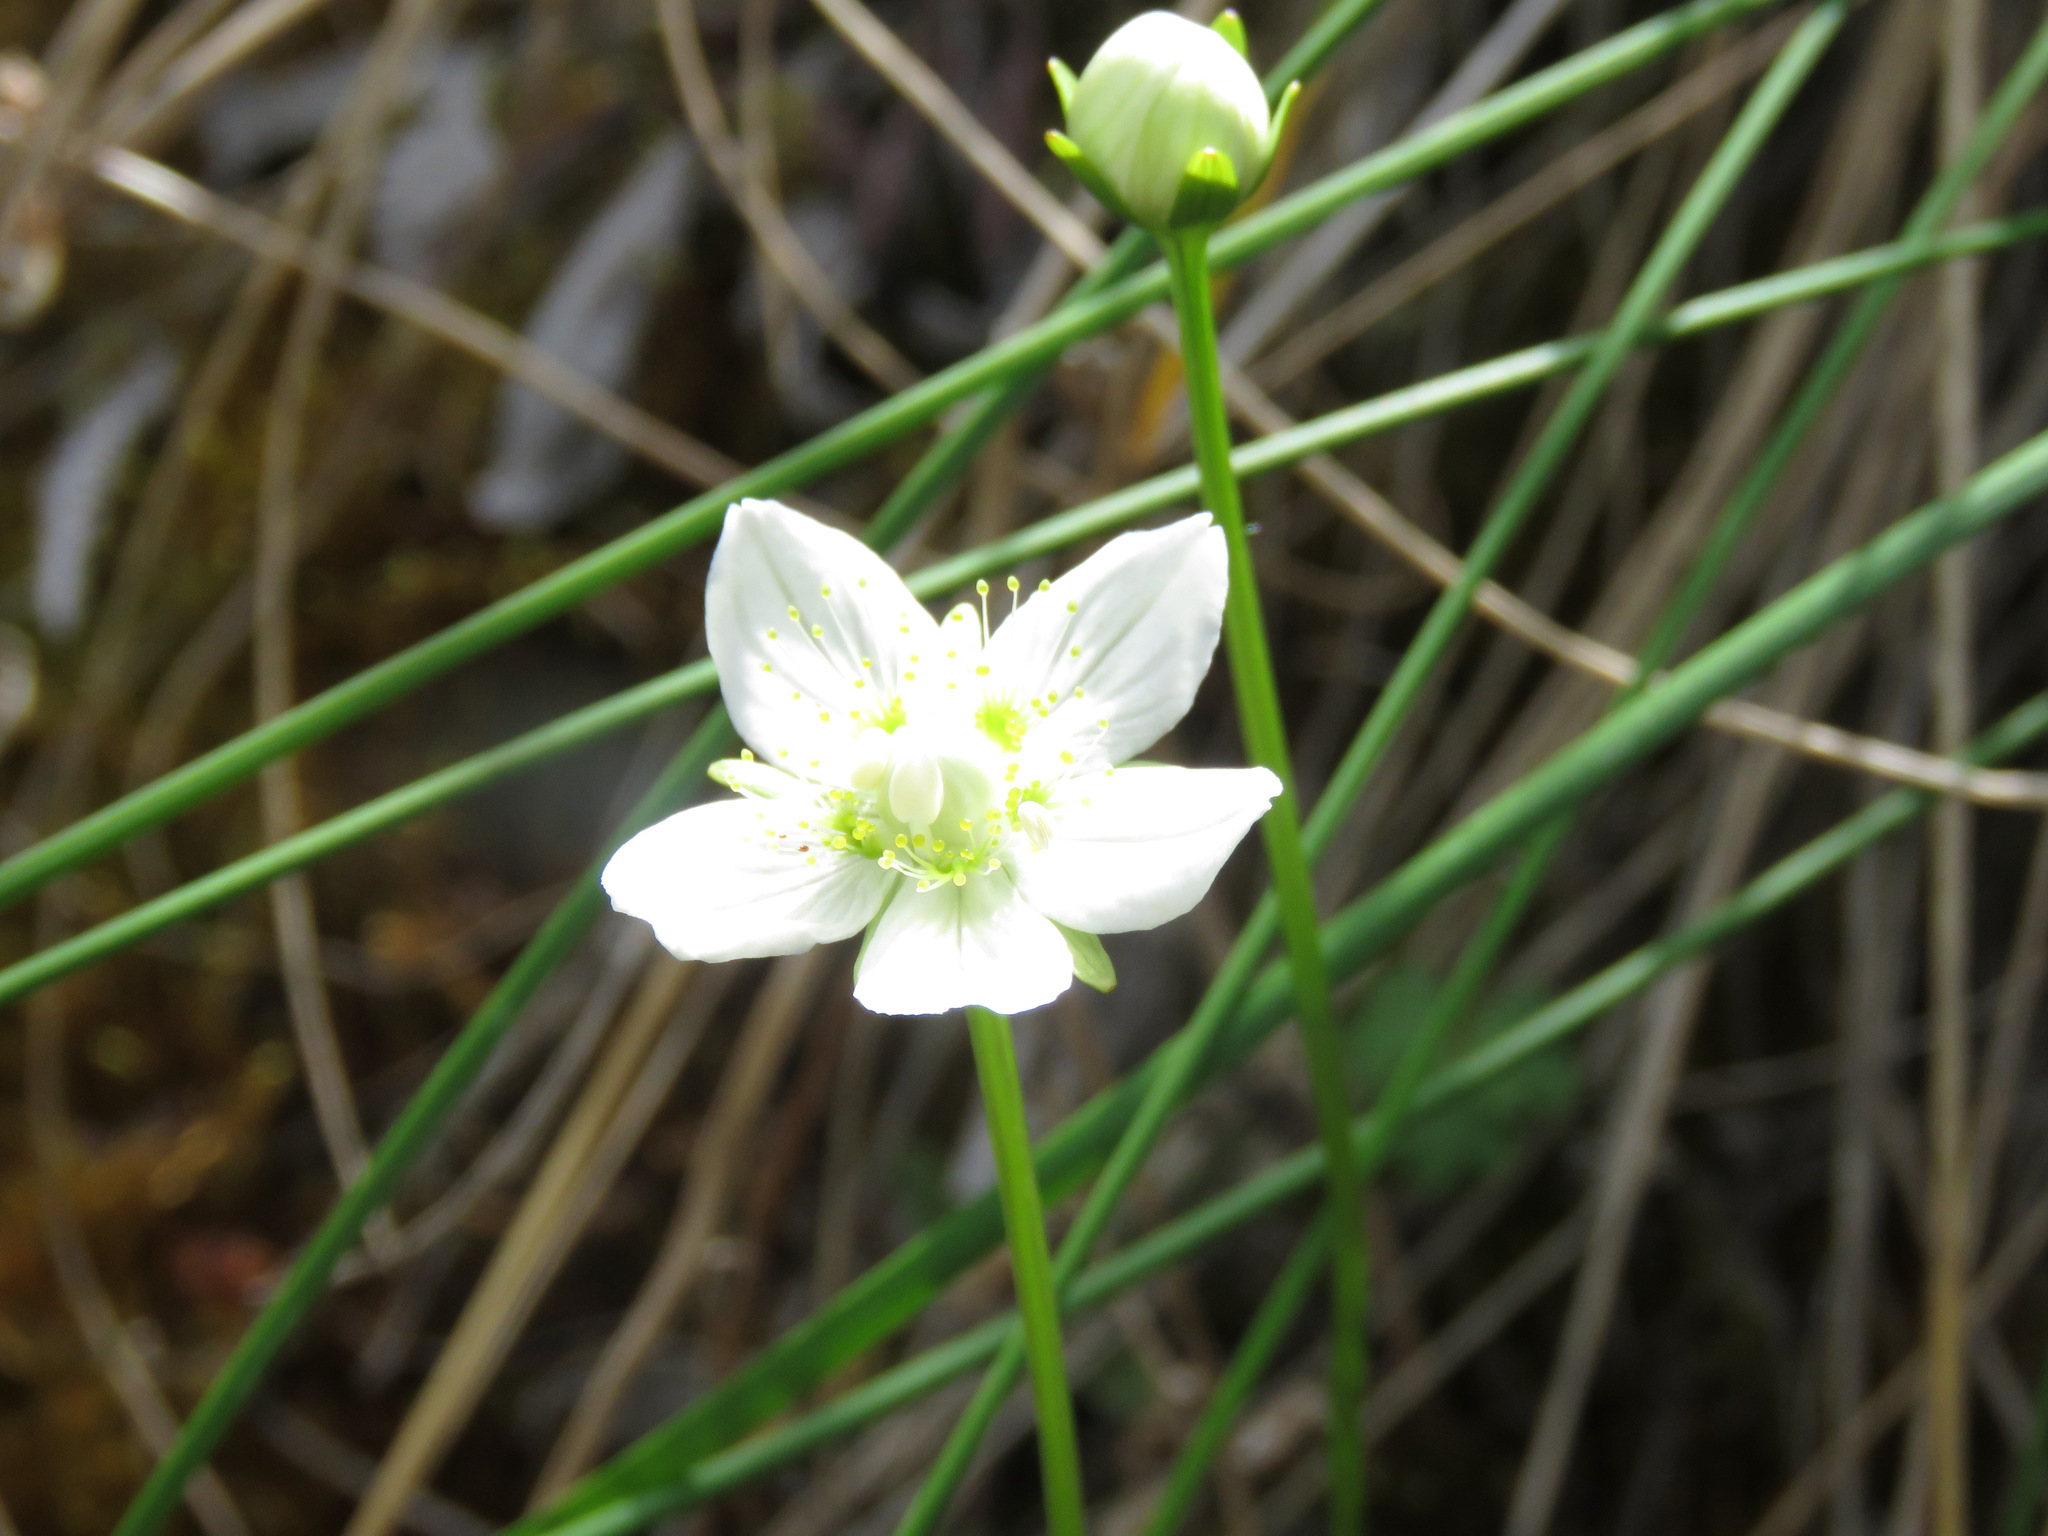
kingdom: Plantae
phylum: Tracheophyta
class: Magnoliopsida
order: Celastrales
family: Parnassiaceae
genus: Parnassia
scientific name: Parnassia palustris
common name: Grass-of-parnassus
